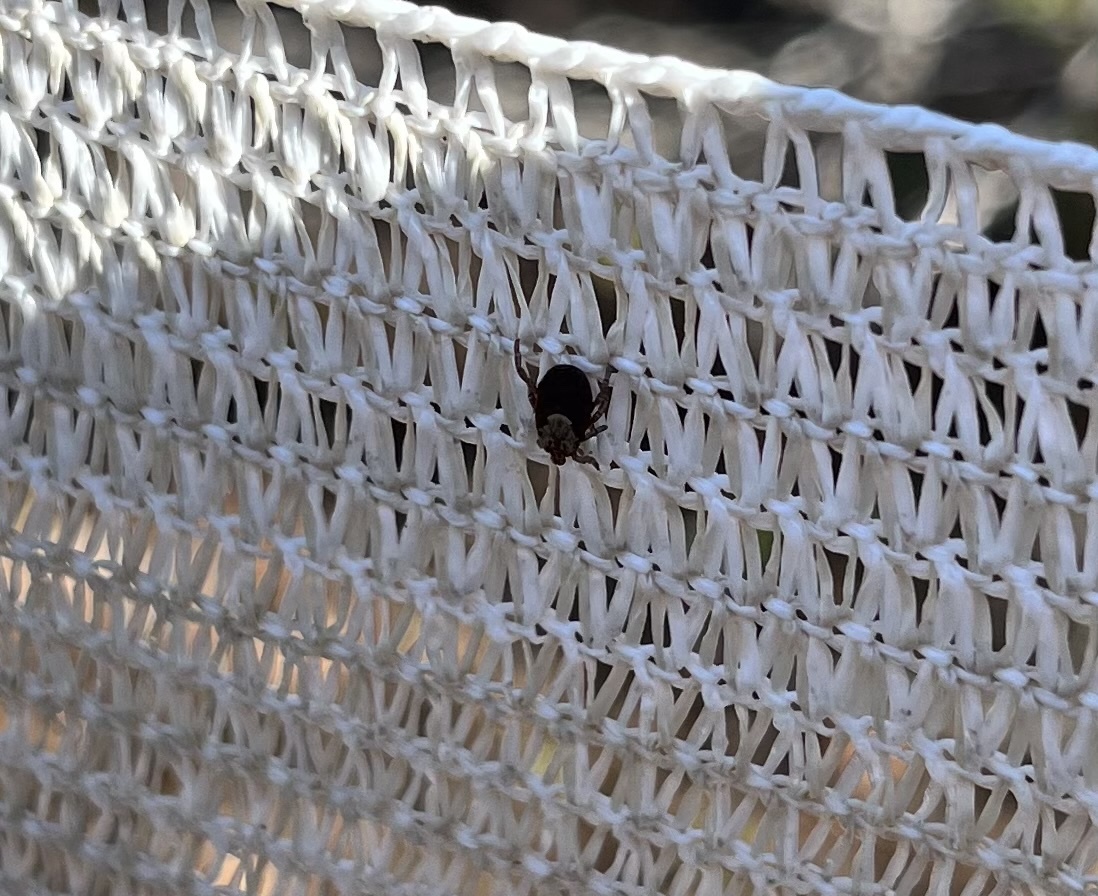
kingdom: Animalia
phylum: Arthropoda
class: Arachnida
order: Ixodida
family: Ixodidae
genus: Dermacentor
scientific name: Dermacentor occidentalis
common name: Net tick
